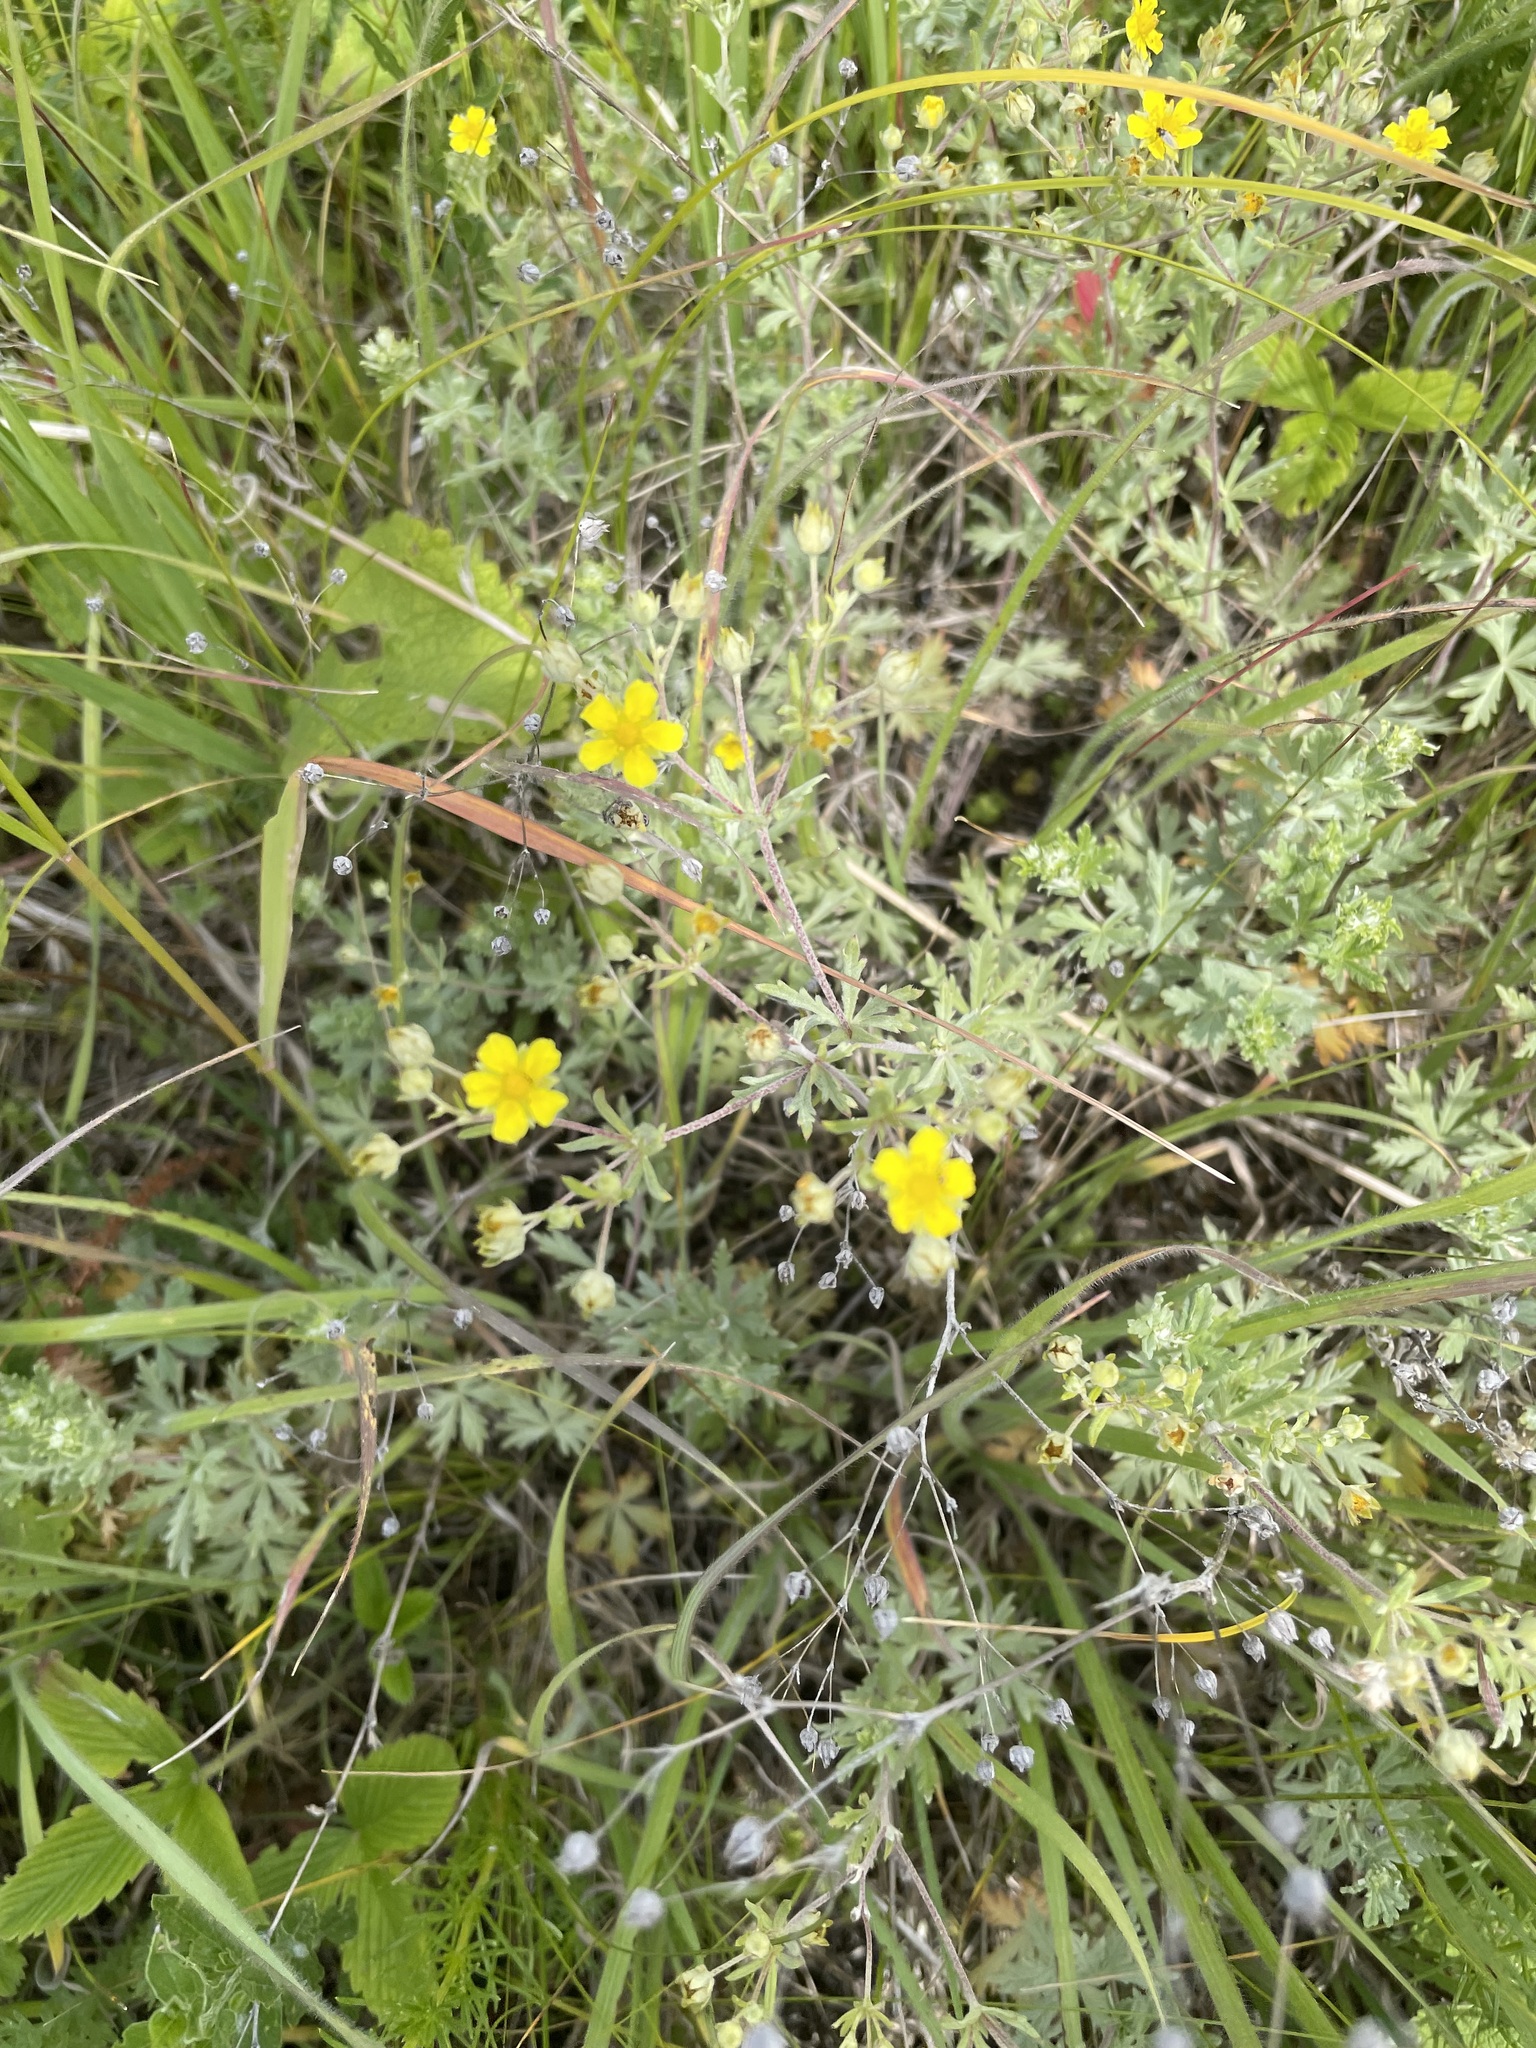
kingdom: Plantae
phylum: Tracheophyta
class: Magnoliopsida
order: Rosales
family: Rosaceae
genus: Potentilla
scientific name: Potentilla argentea
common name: Hoary cinquefoil
